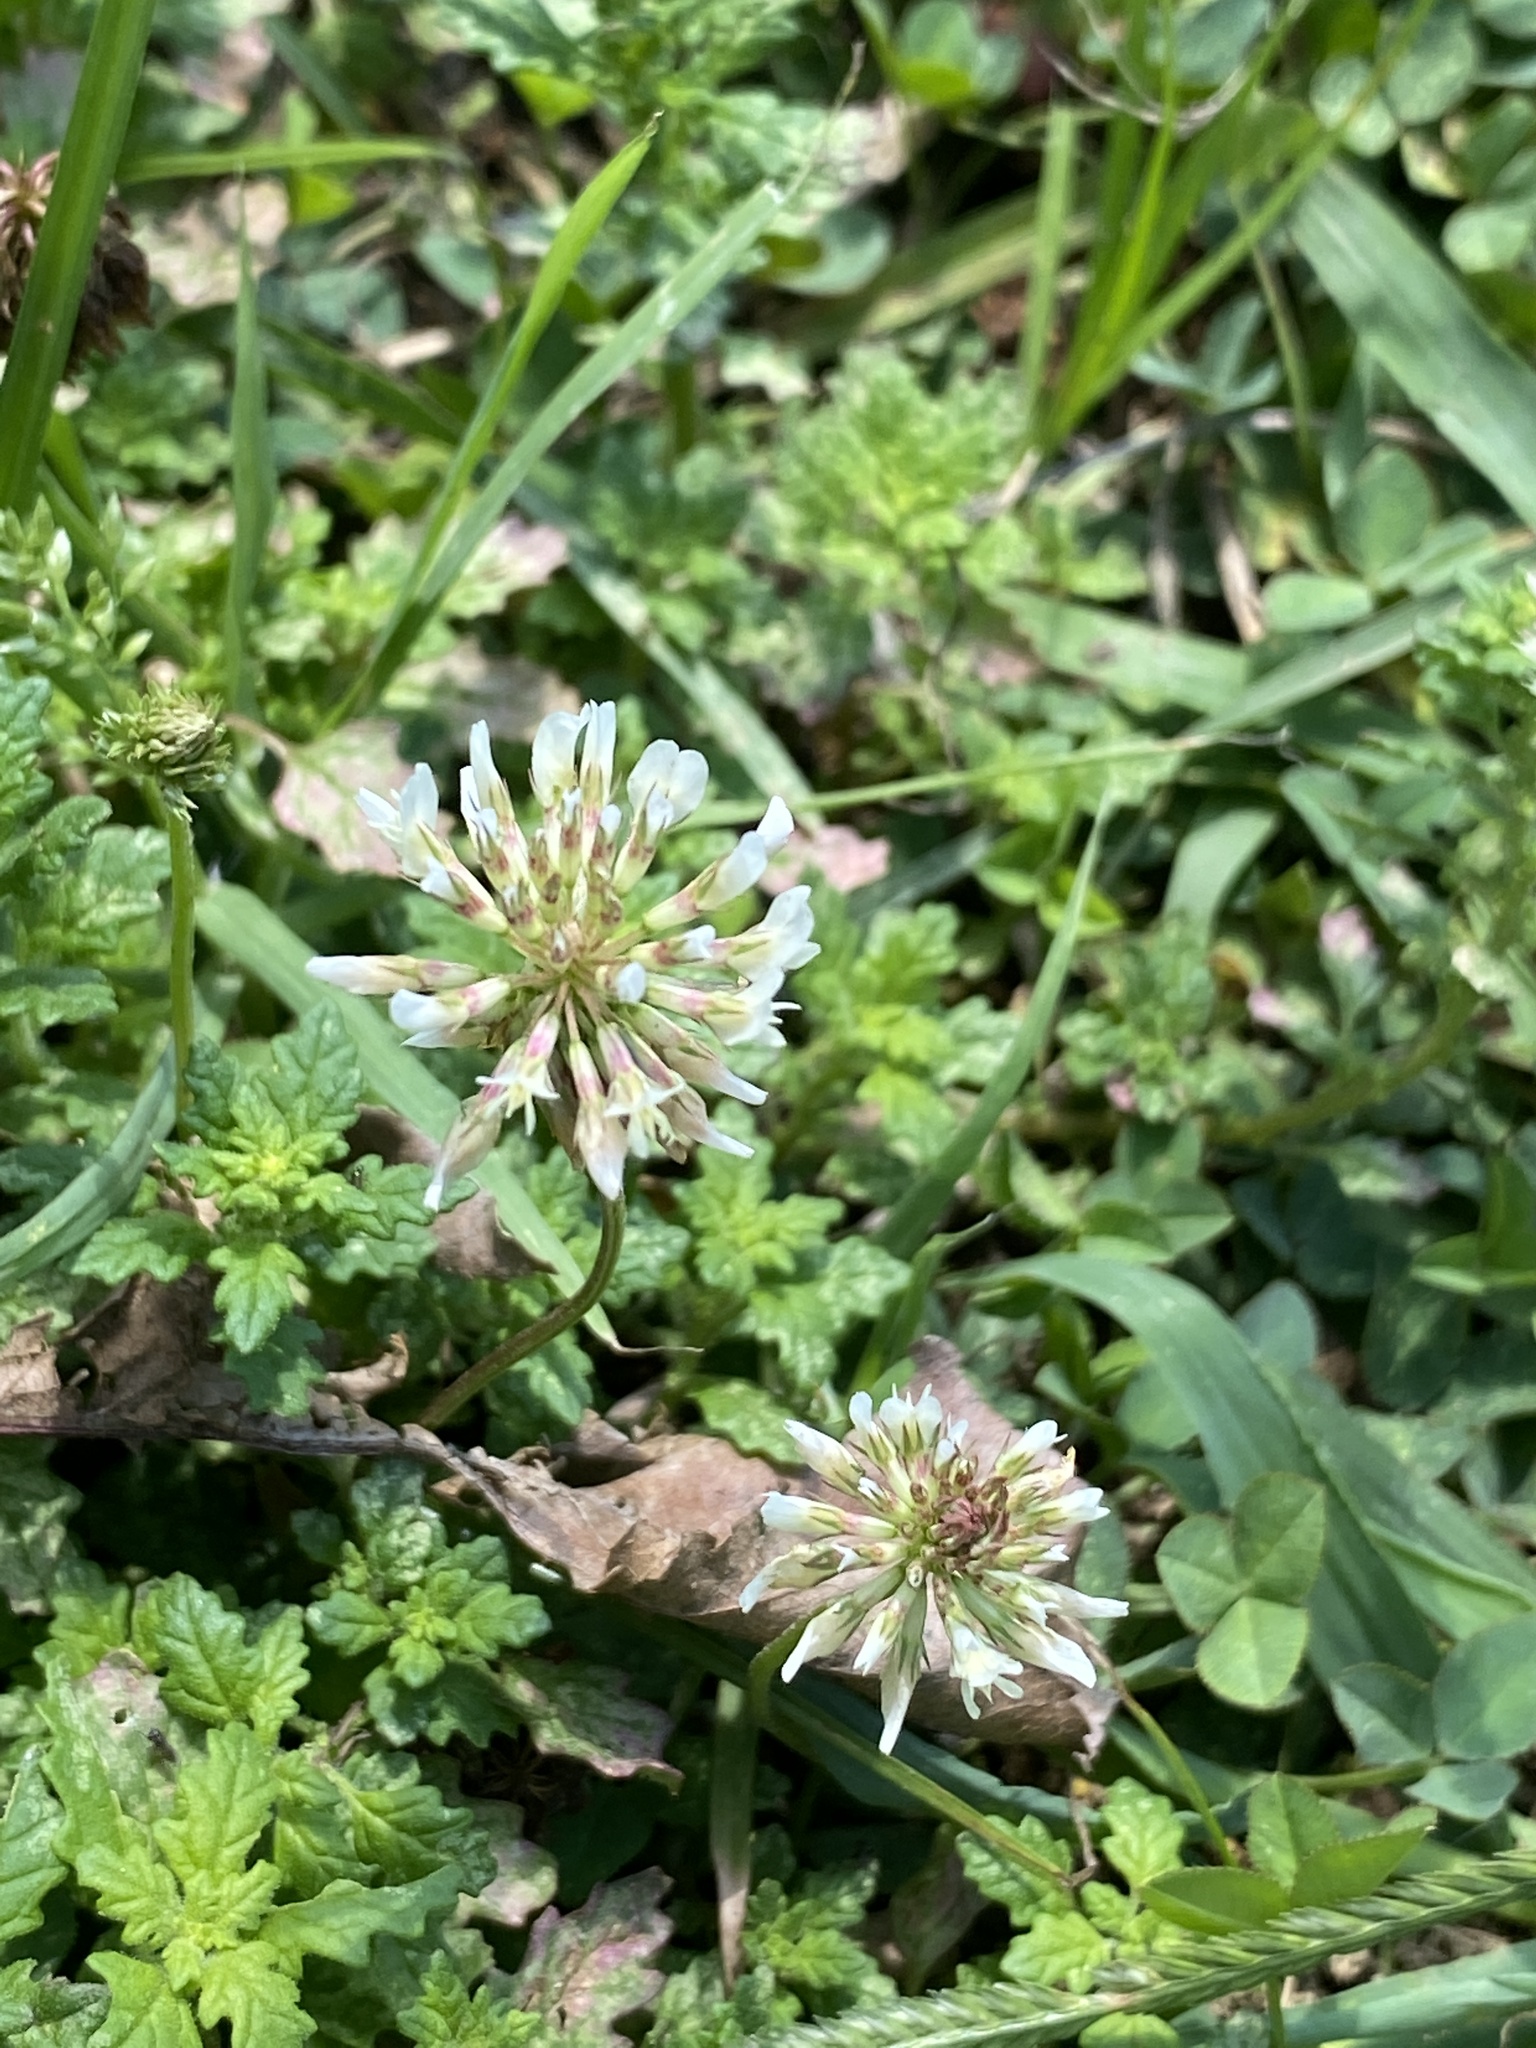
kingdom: Plantae
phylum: Tracheophyta
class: Magnoliopsida
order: Fabales
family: Fabaceae
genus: Trifolium
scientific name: Trifolium repens
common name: White clover
